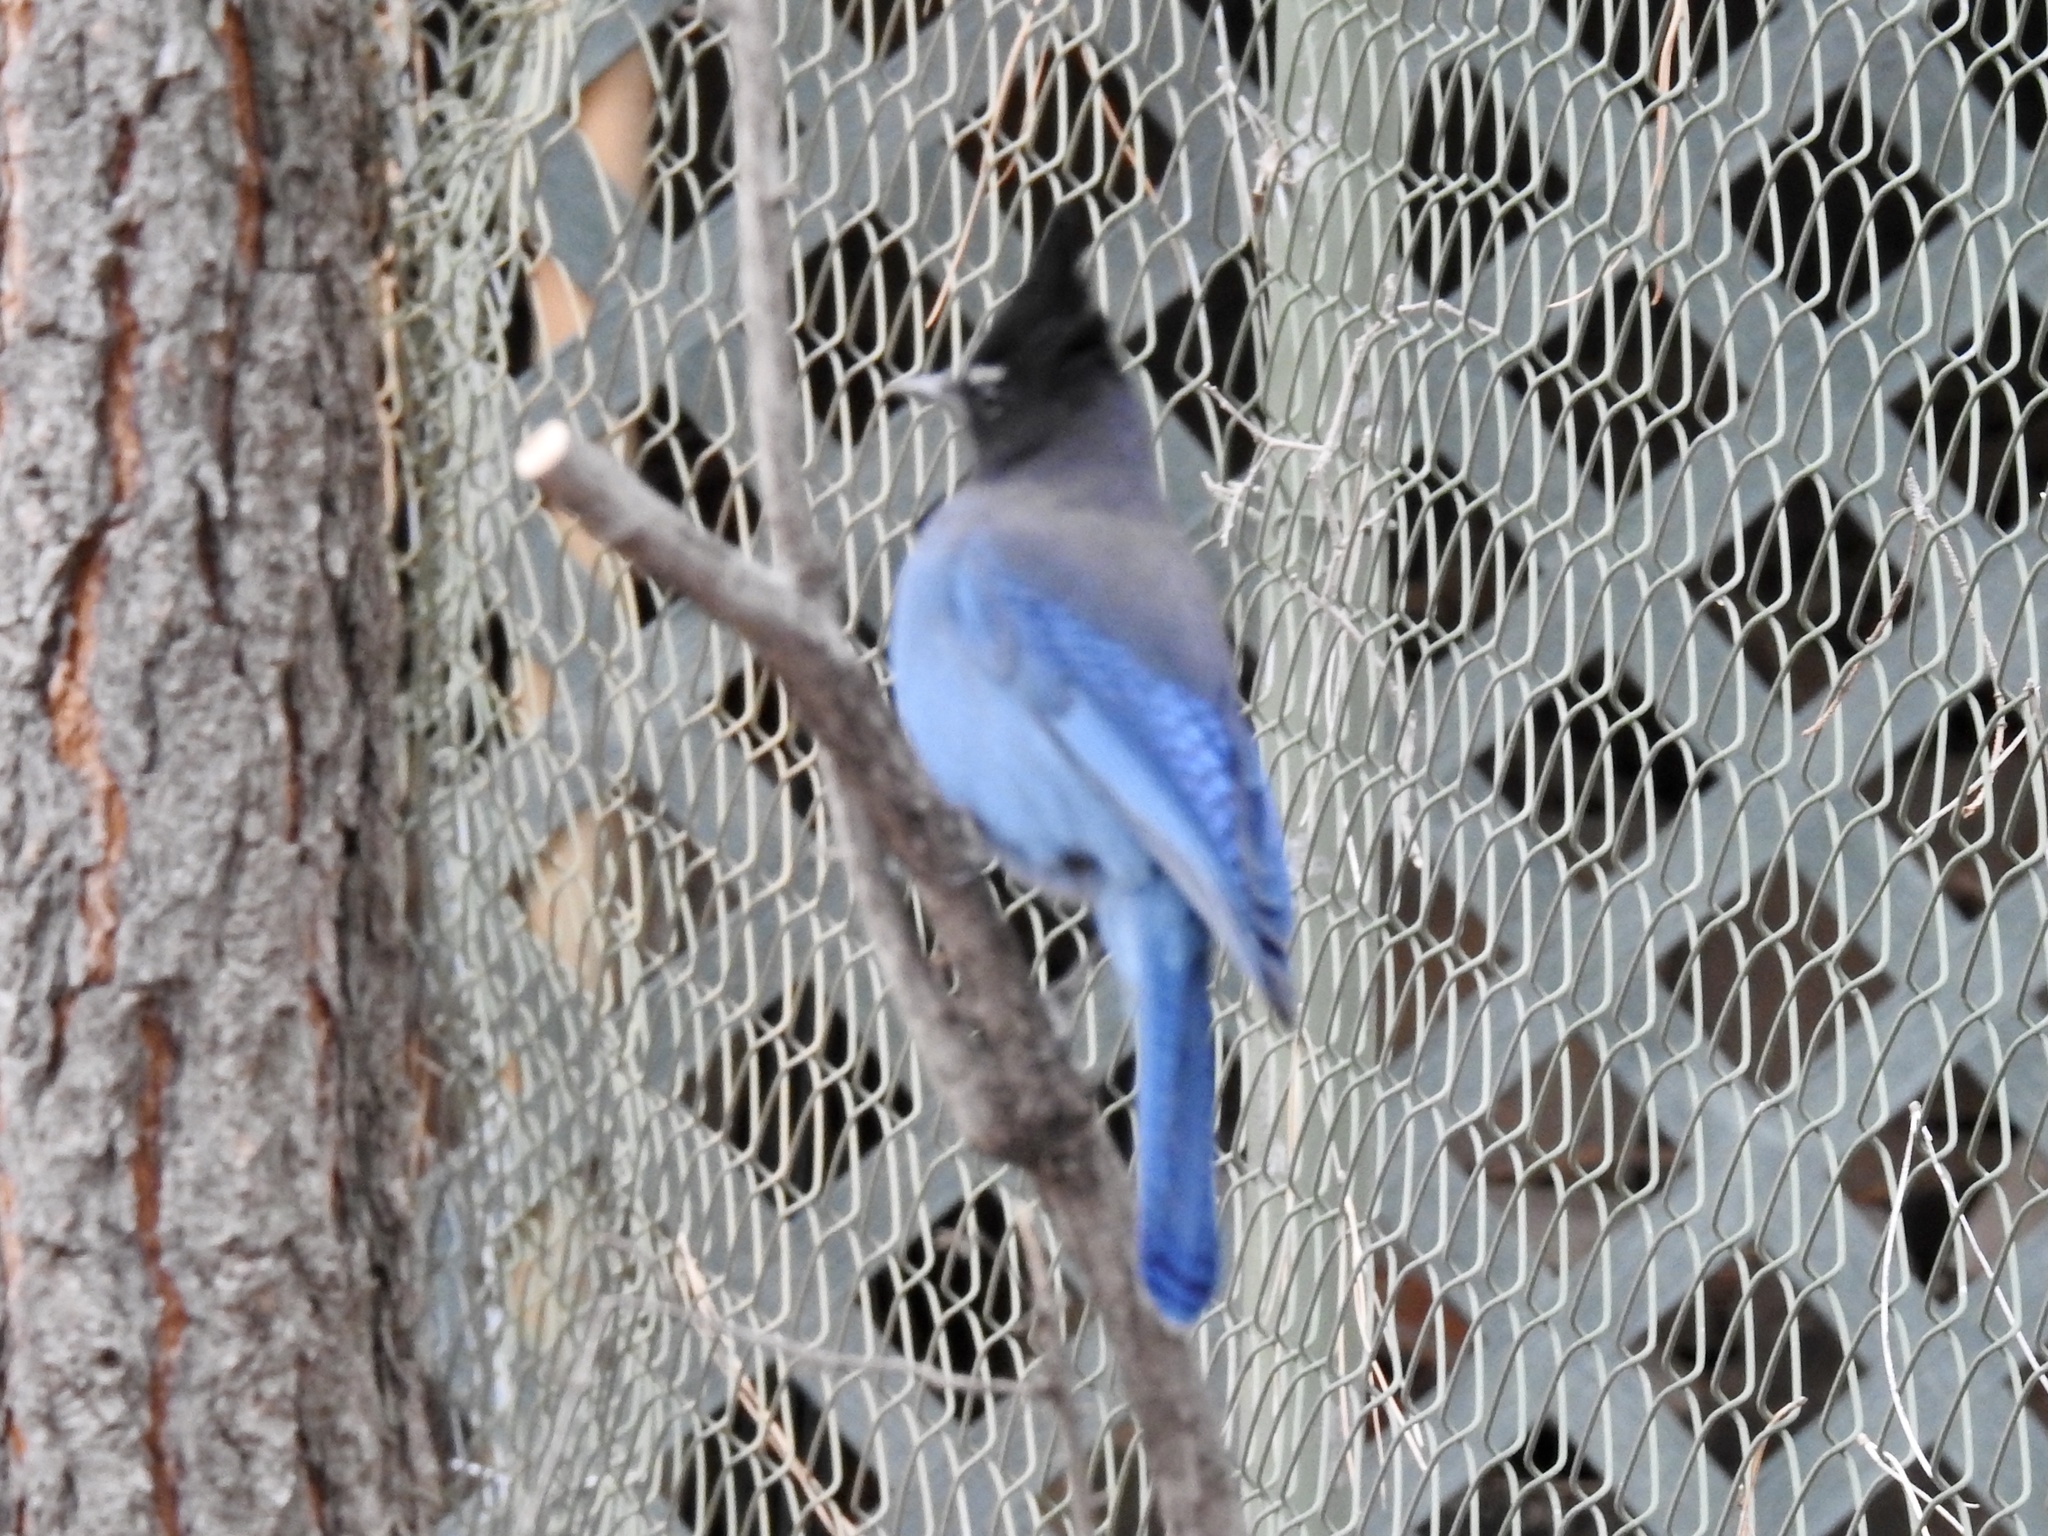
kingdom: Animalia
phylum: Chordata
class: Aves
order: Passeriformes
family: Corvidae
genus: Cyanocitta
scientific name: Cyanocitta stelleri
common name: Steller's jay
